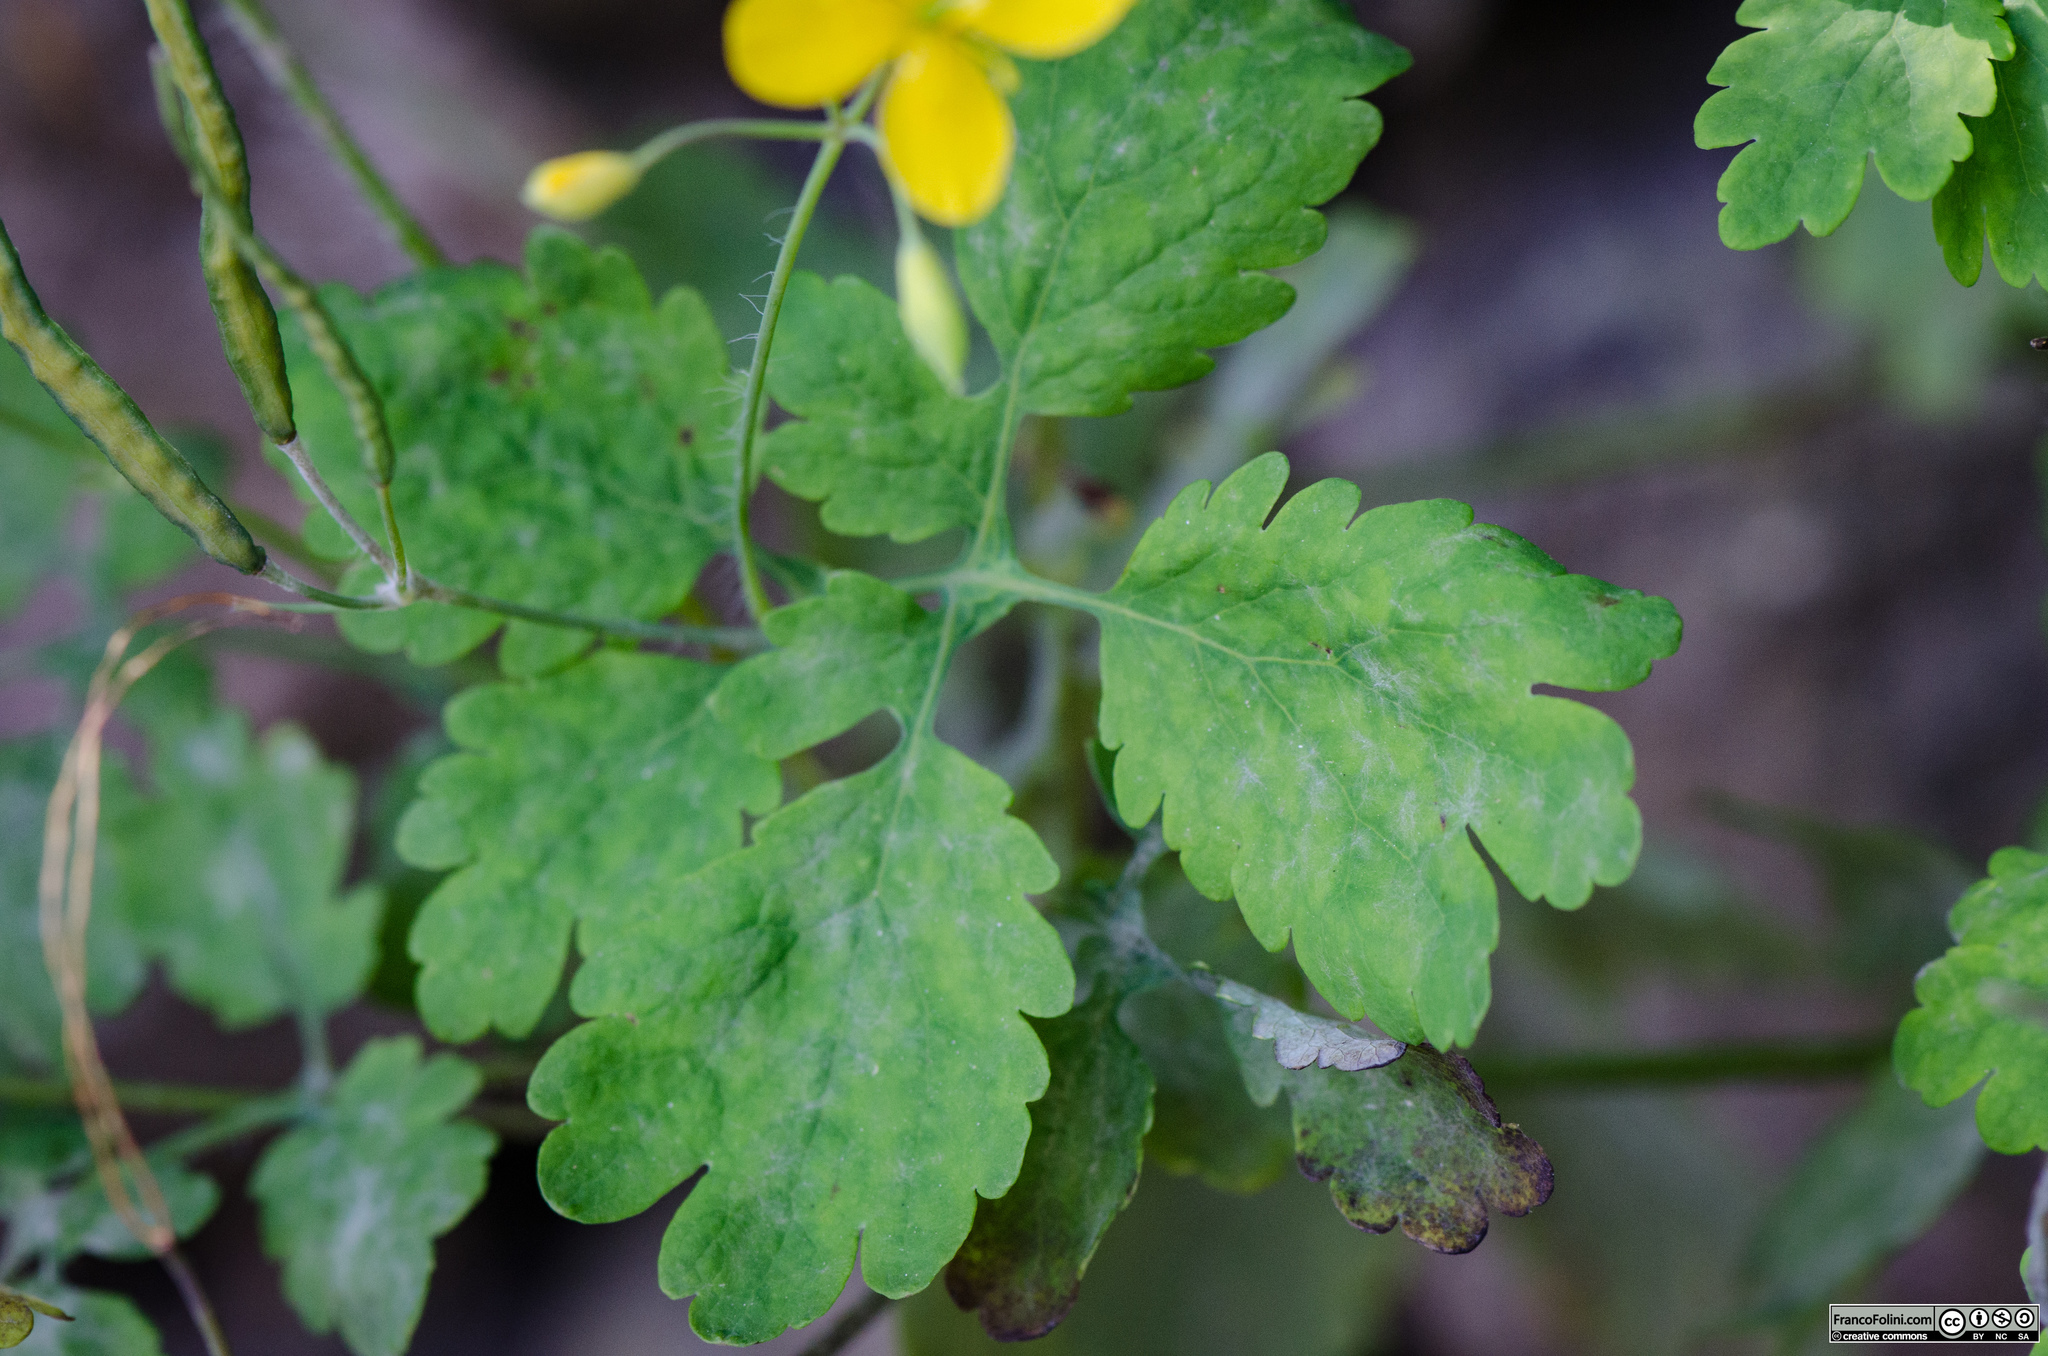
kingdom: Plantae
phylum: Tracheophyta
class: Magnoliopsida
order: Ranunculales
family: Papaveraceae
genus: Chelidonium
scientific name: Chelidonium majus
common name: Greater celandine
